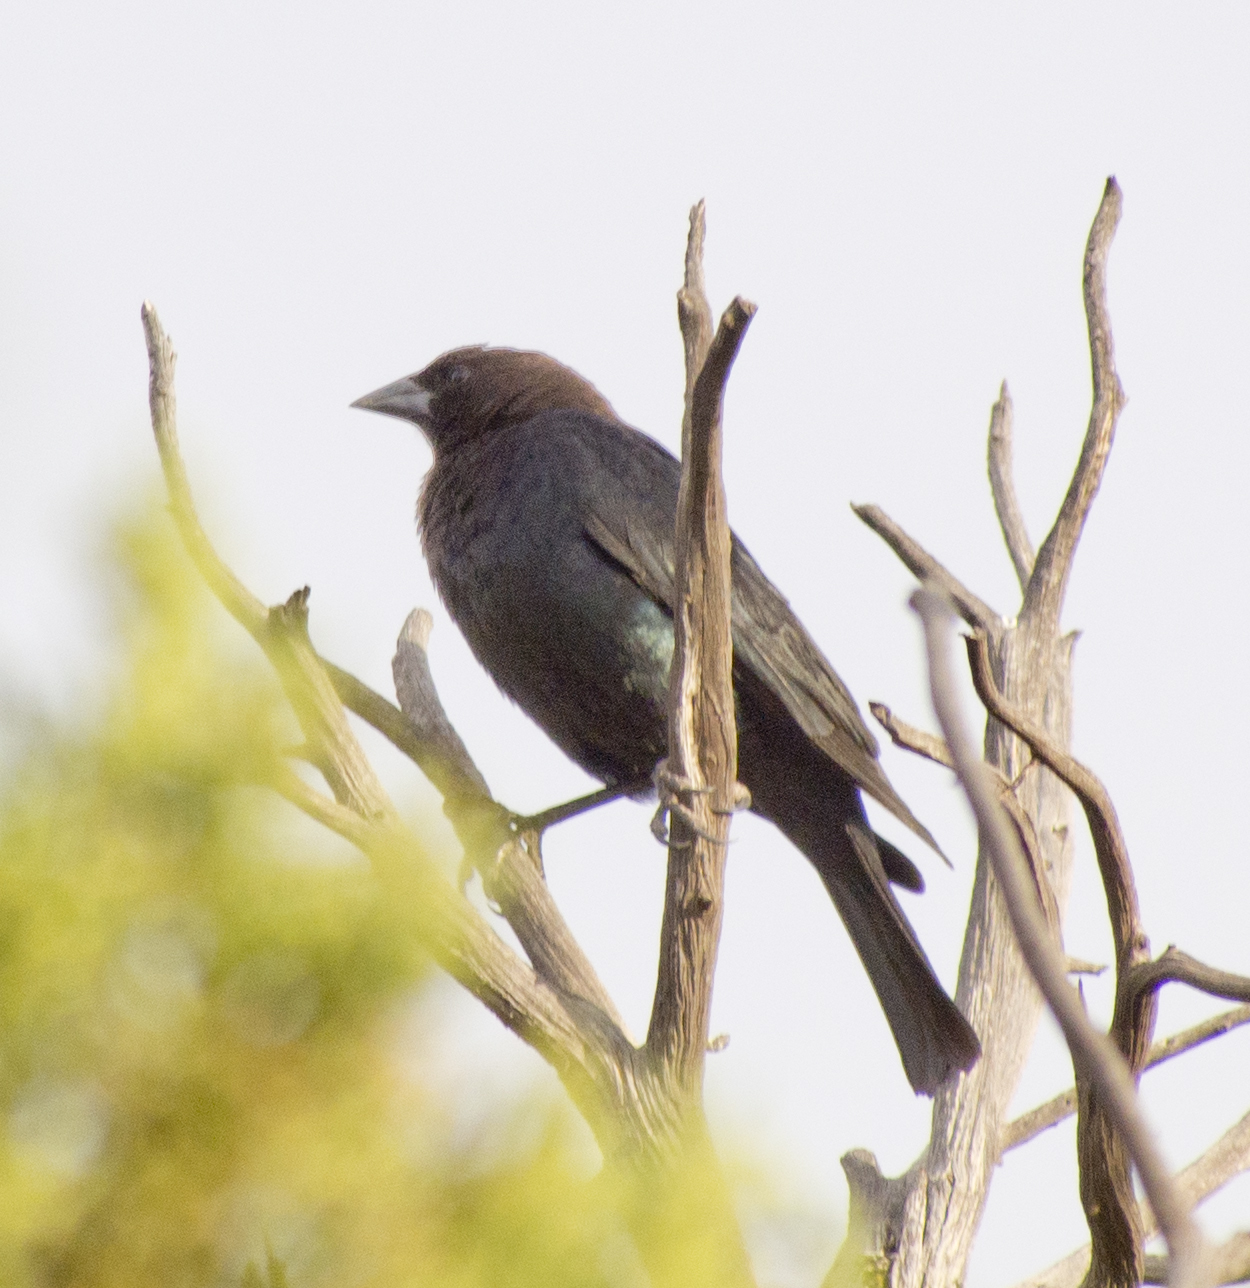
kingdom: Animalia
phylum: Chordata
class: Aves
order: Passeriformes
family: Icteridae
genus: Molothrus
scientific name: Molothrus ater
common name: Brown-headed cowbird
